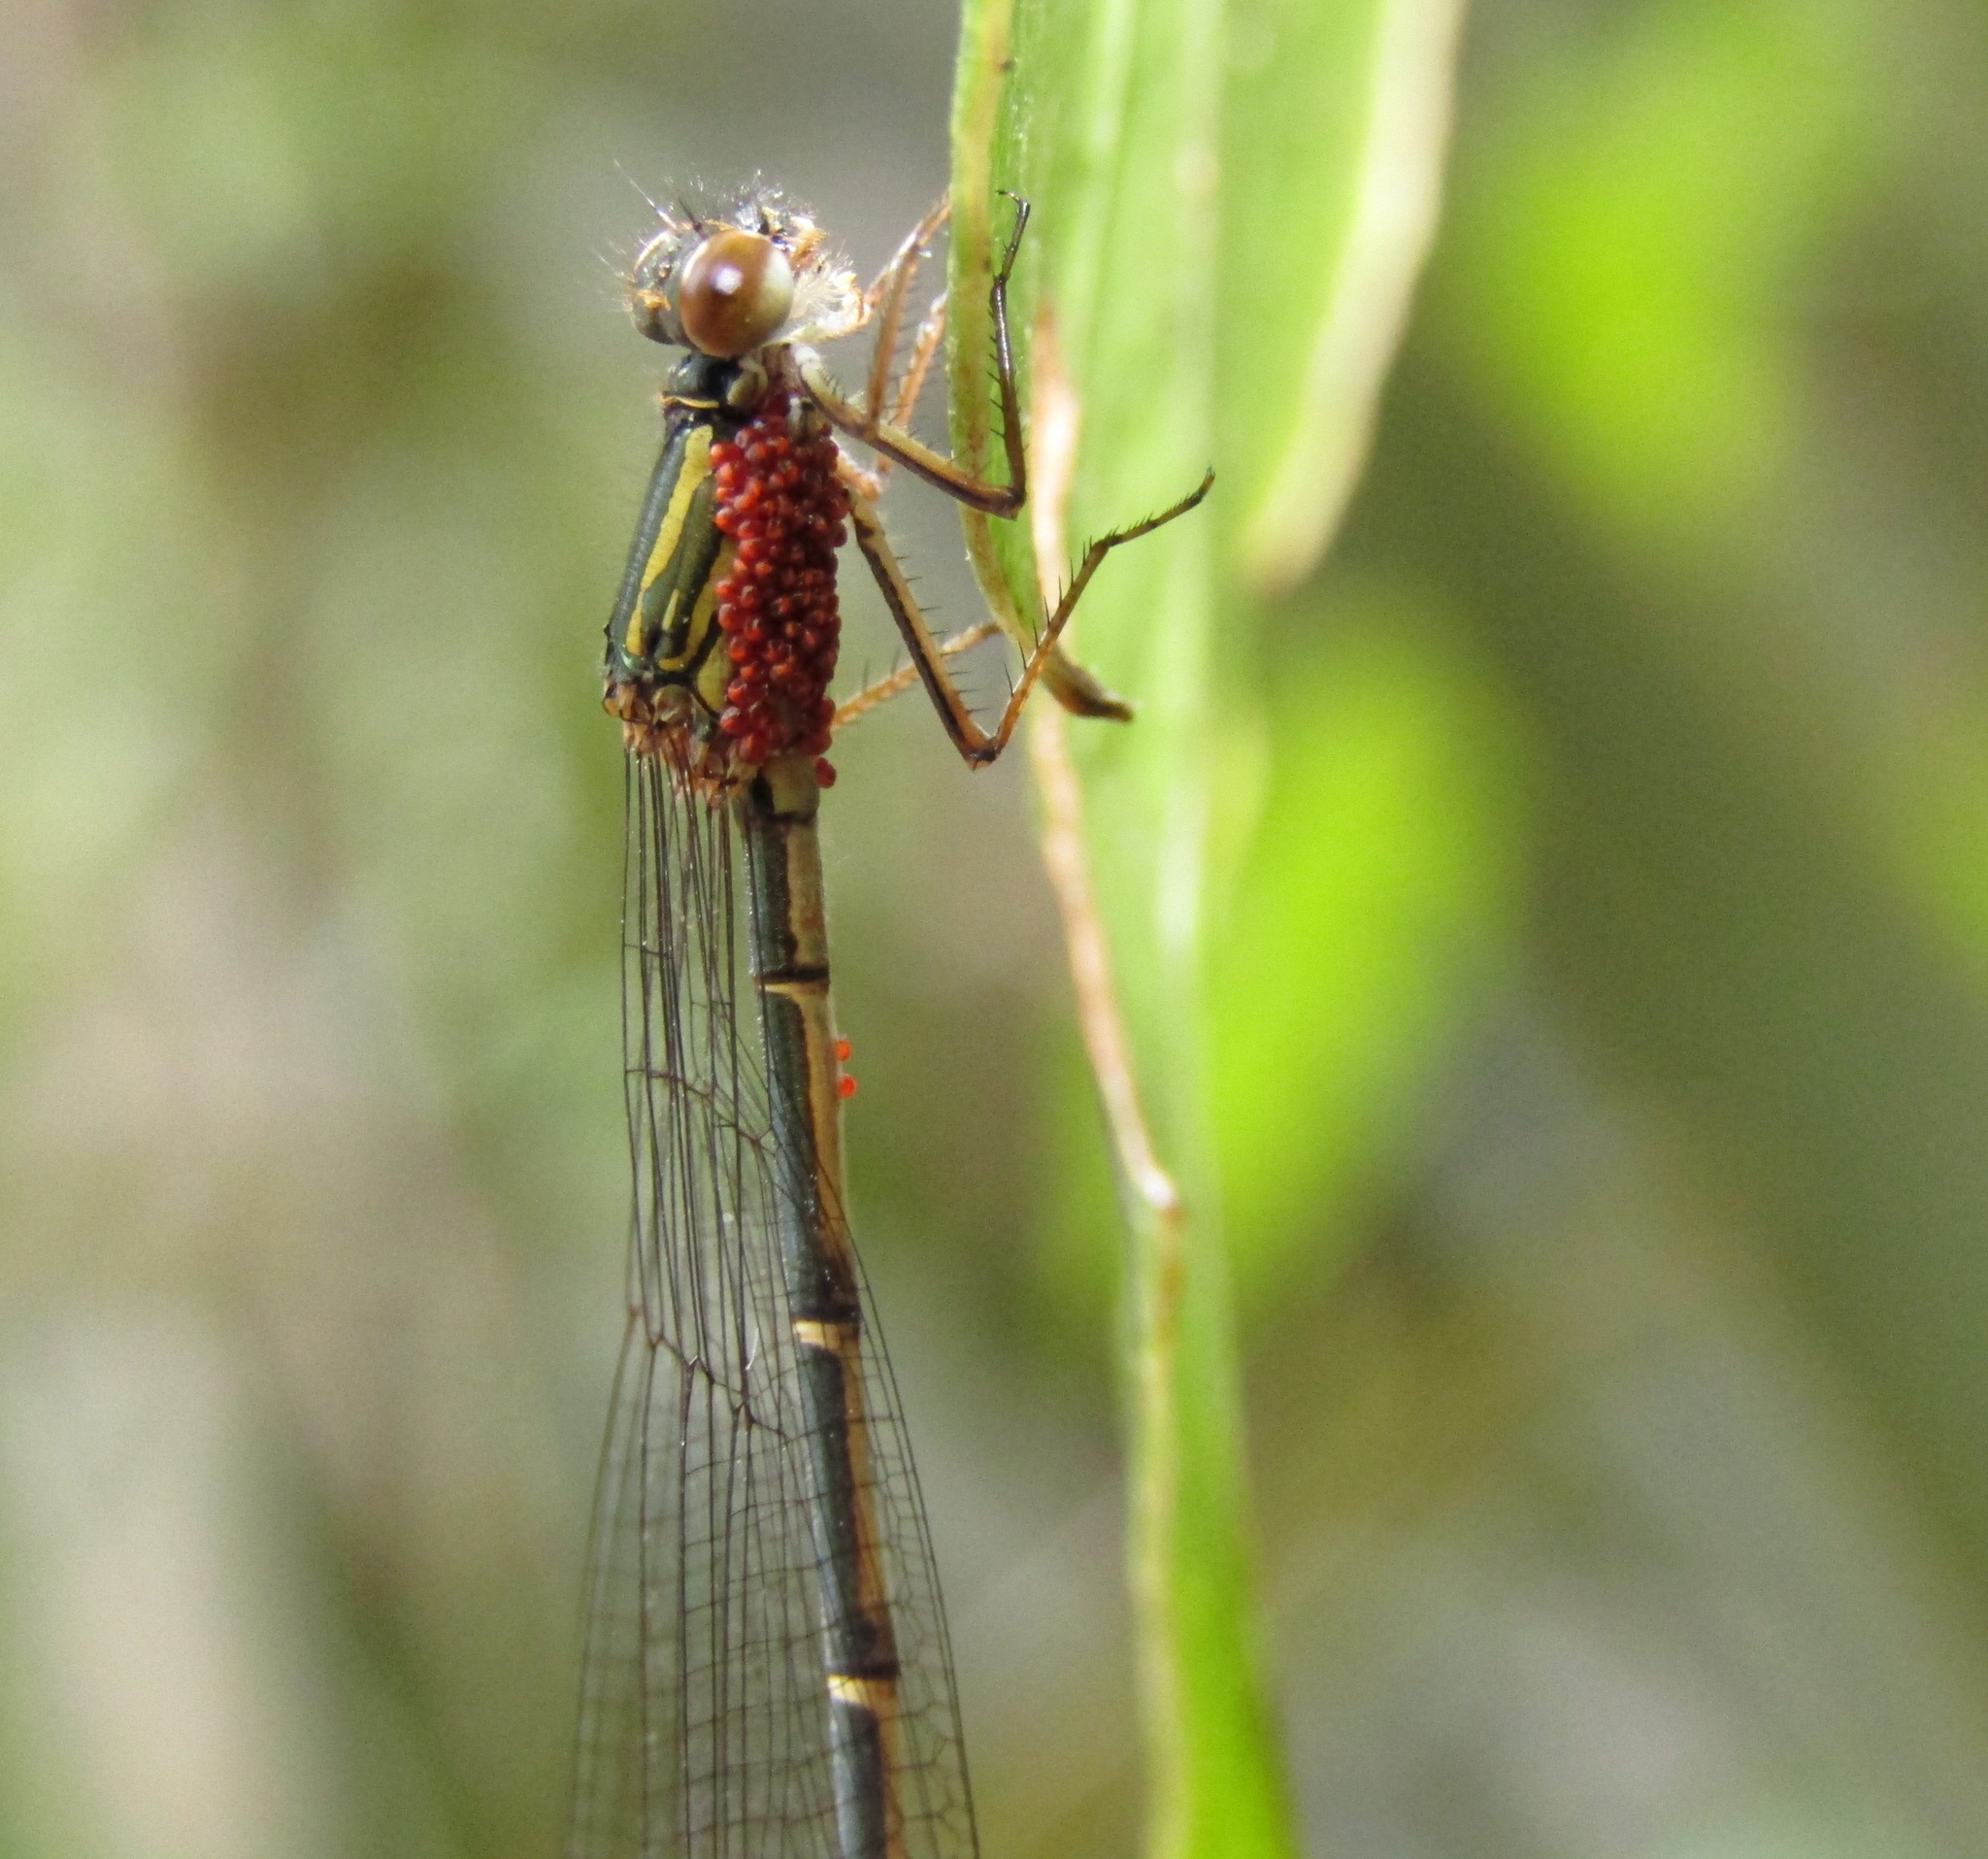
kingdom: Animalia
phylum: Arthropoda
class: Insecta
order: Odonata
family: Coenagrionidae
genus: Xanthocnemis
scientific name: Xanthocnemis zealandica
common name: Common redcoat damselfly
